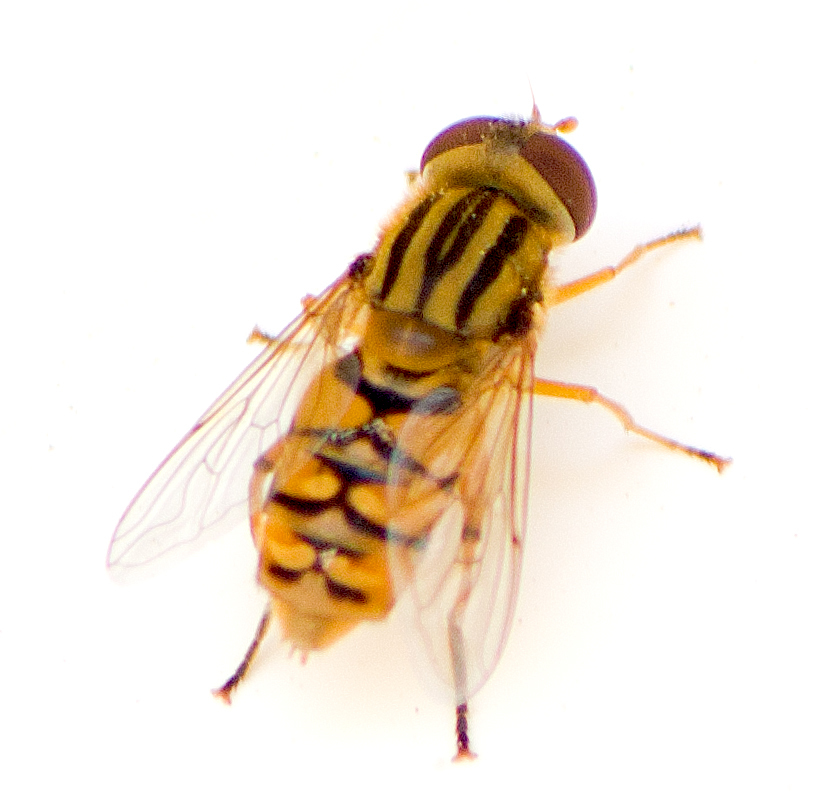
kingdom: Animalia
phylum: Arthropoda
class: Insecta
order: Diptera
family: Syrphidae
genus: Parhelophilus
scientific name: Parhelophilus
